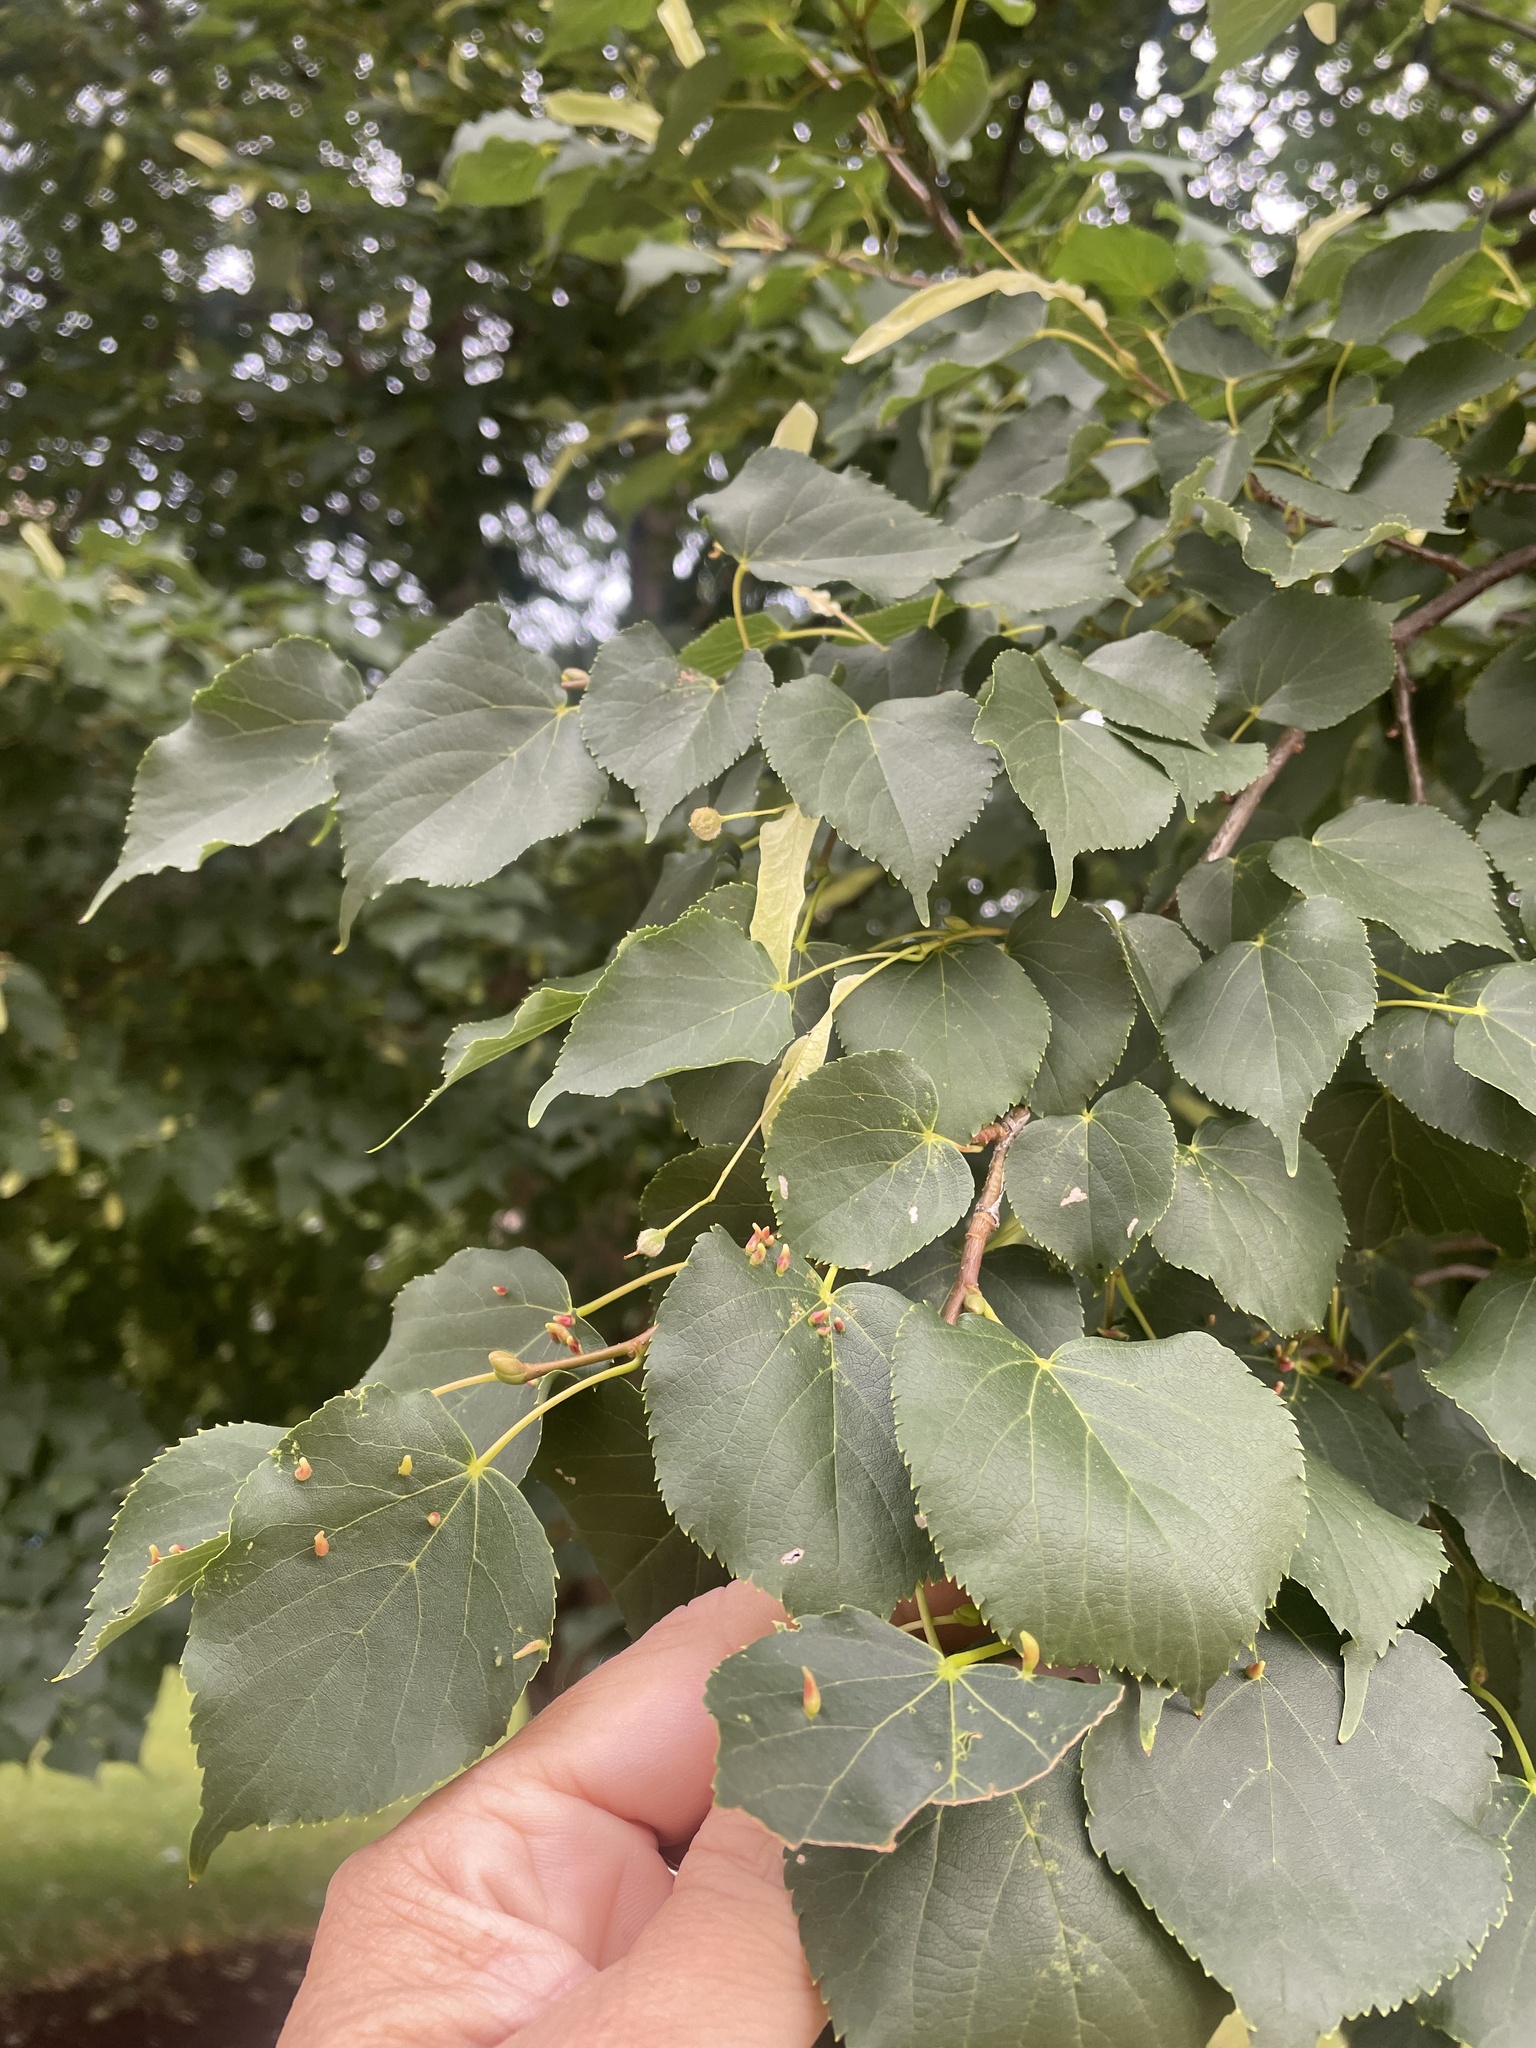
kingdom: Animalia
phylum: Arthropoda
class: Arachnida
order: Trombidiformes
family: Eriophyidae
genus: Eriophyes
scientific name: Eriophyes tiliae
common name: Red nail gall mite
